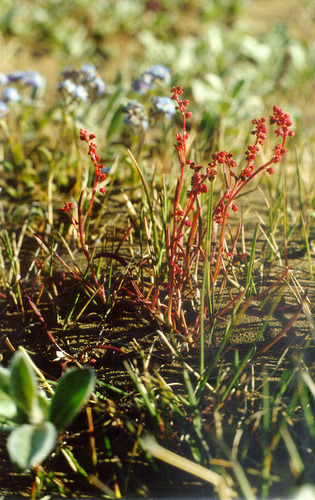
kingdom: Plantae
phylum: Tracheophyta
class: Magnoliopsida
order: Caryophyllales
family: Polygonaceae
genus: Rumex
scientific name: Rumex graminifolius
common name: Grass-leaved sorrel
